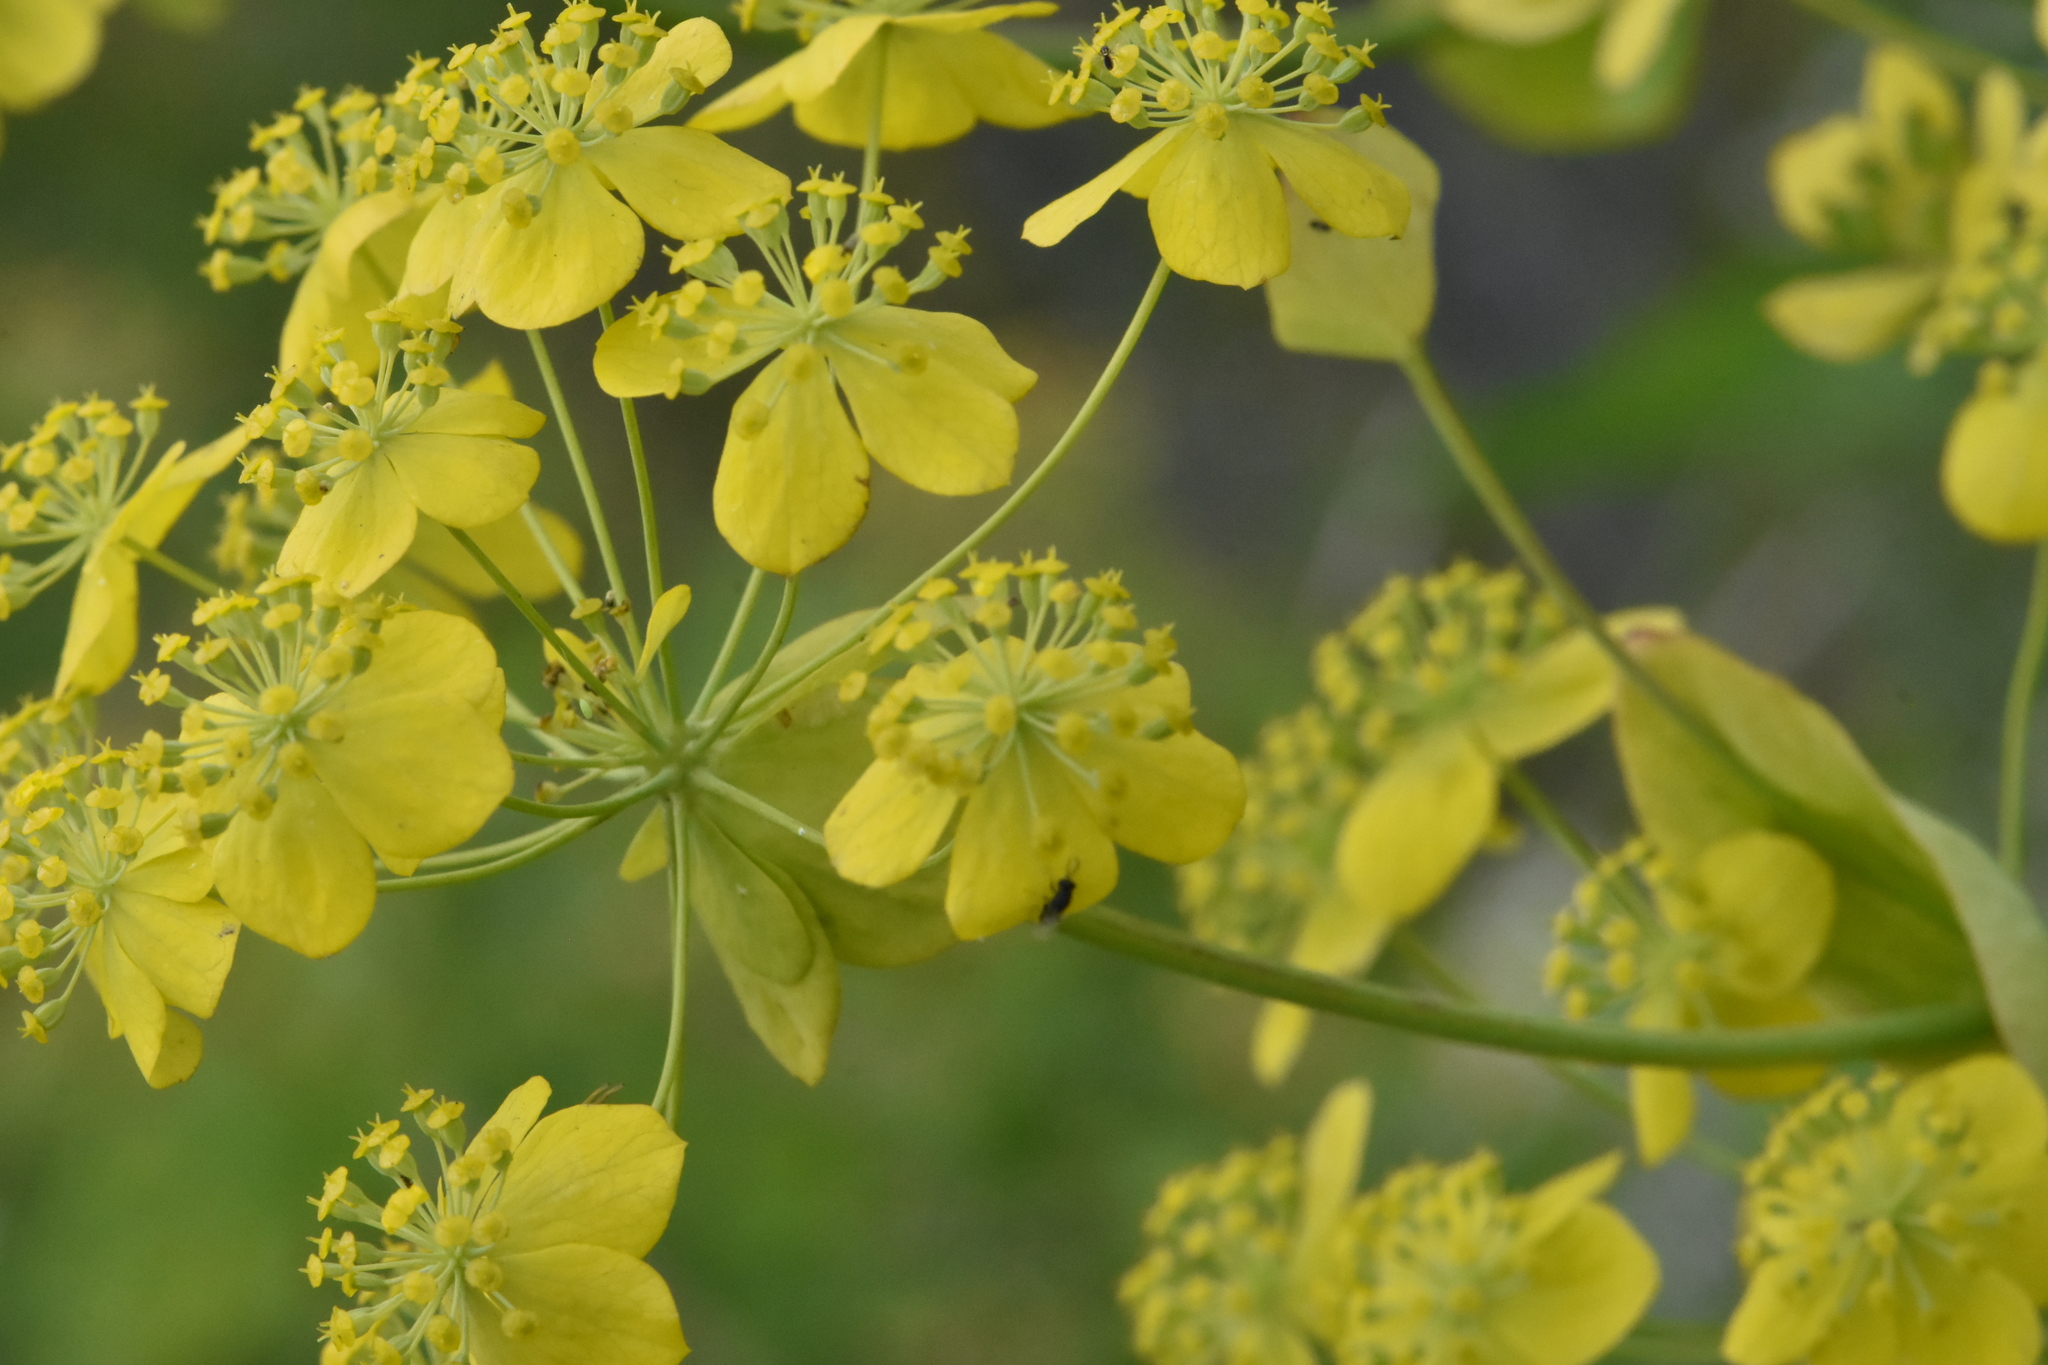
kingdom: Plantae
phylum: Tracheophyta
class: Magnoliopsida
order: Apiales
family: Apiaceae
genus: Bupleurum
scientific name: Bupleurum aureum
